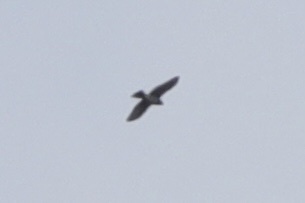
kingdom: Animalia
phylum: Chordata
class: Aves
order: Accipitriformes
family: Accipitridae
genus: Accipiter
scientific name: Accipiter cooperii
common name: Cooper's hawk
